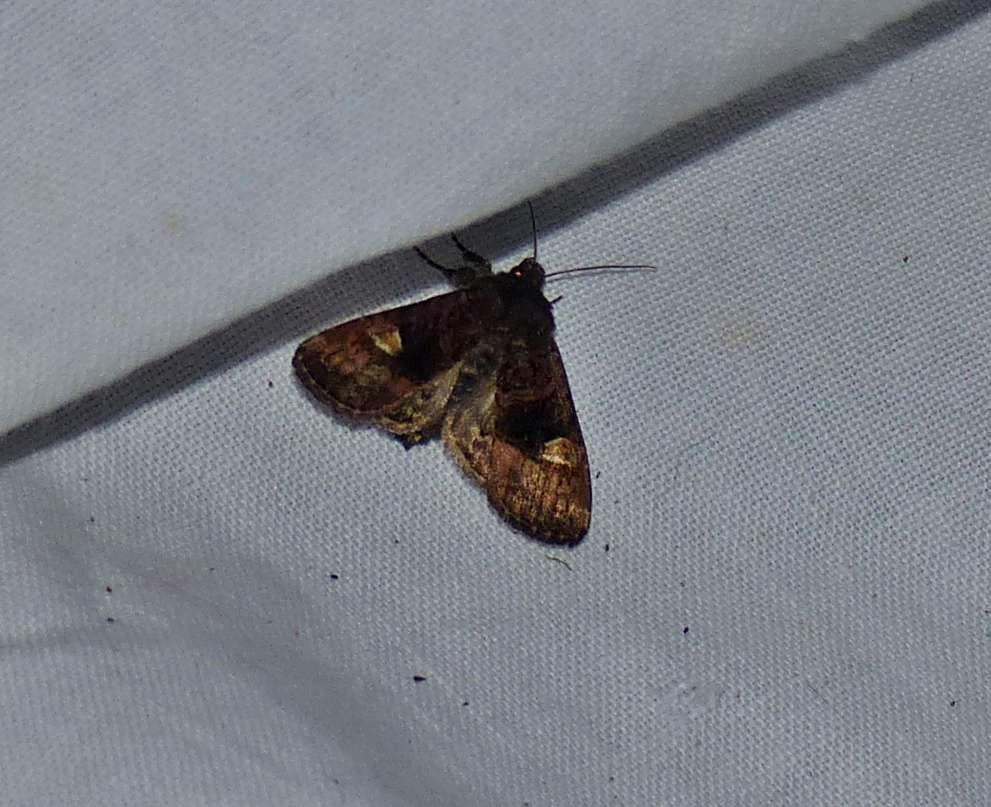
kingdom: Animalia
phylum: Arthropoda
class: Insecta
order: Lepidoptera
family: Noctuidae
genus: Euplexia
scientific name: Euplexia benesimilis
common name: American angle shades
